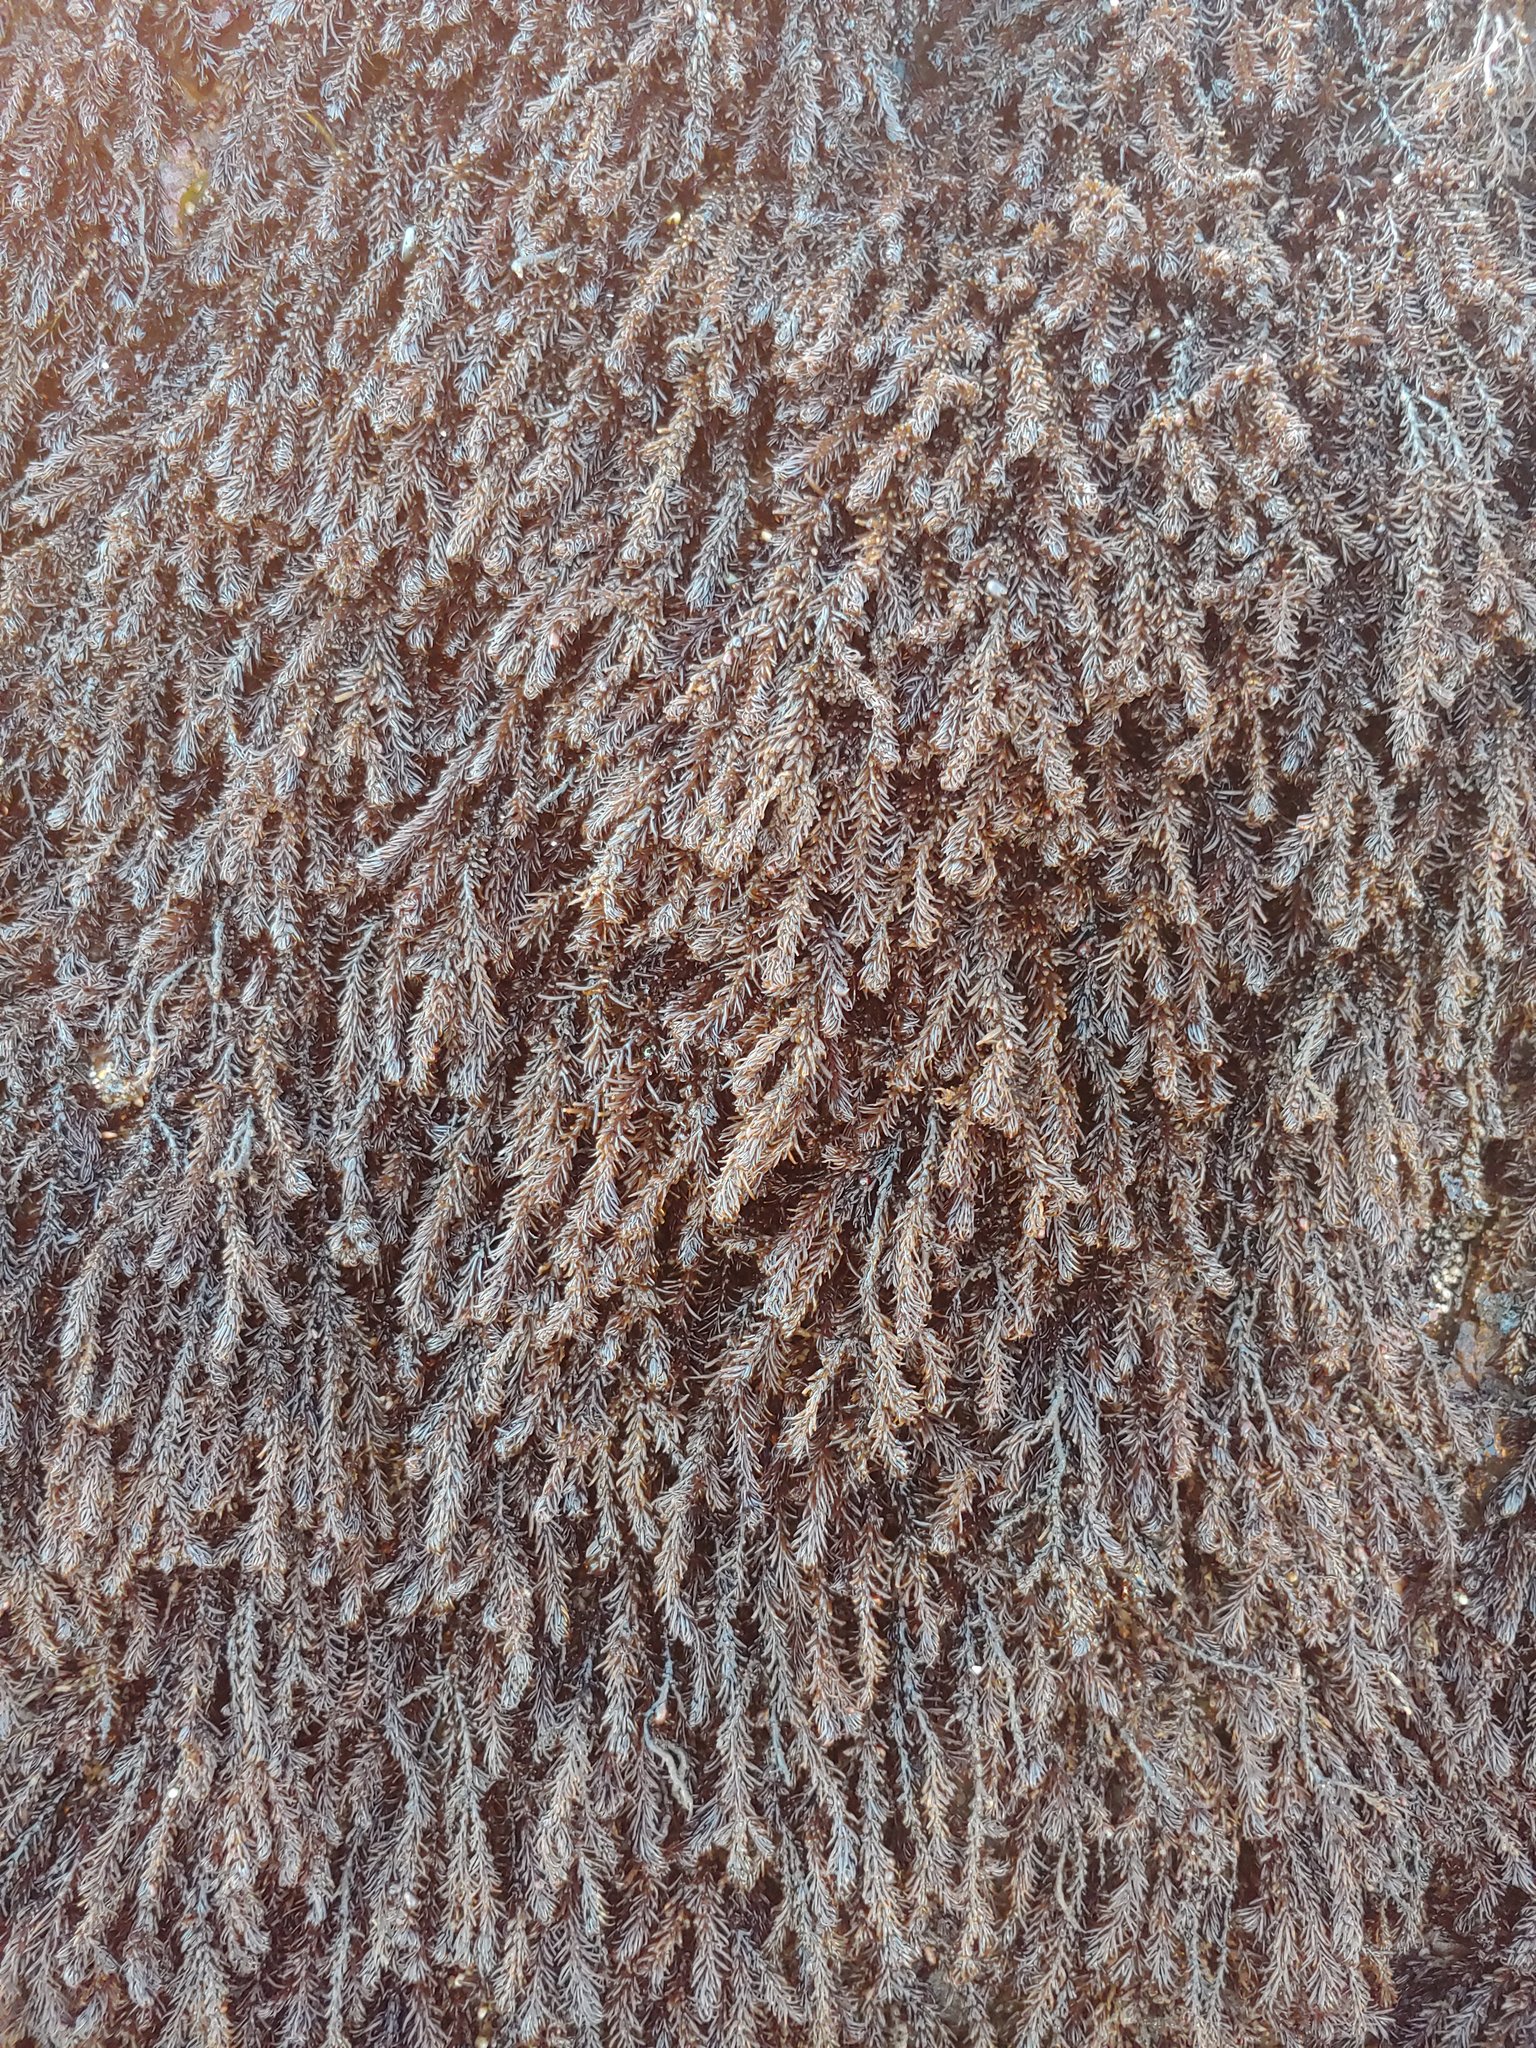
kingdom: Plantae
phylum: Rhodophyta
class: Florideophyceae
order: Ceramiales
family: Rhodomelaceae
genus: Neorhodomela
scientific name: Neorhodomela larix
